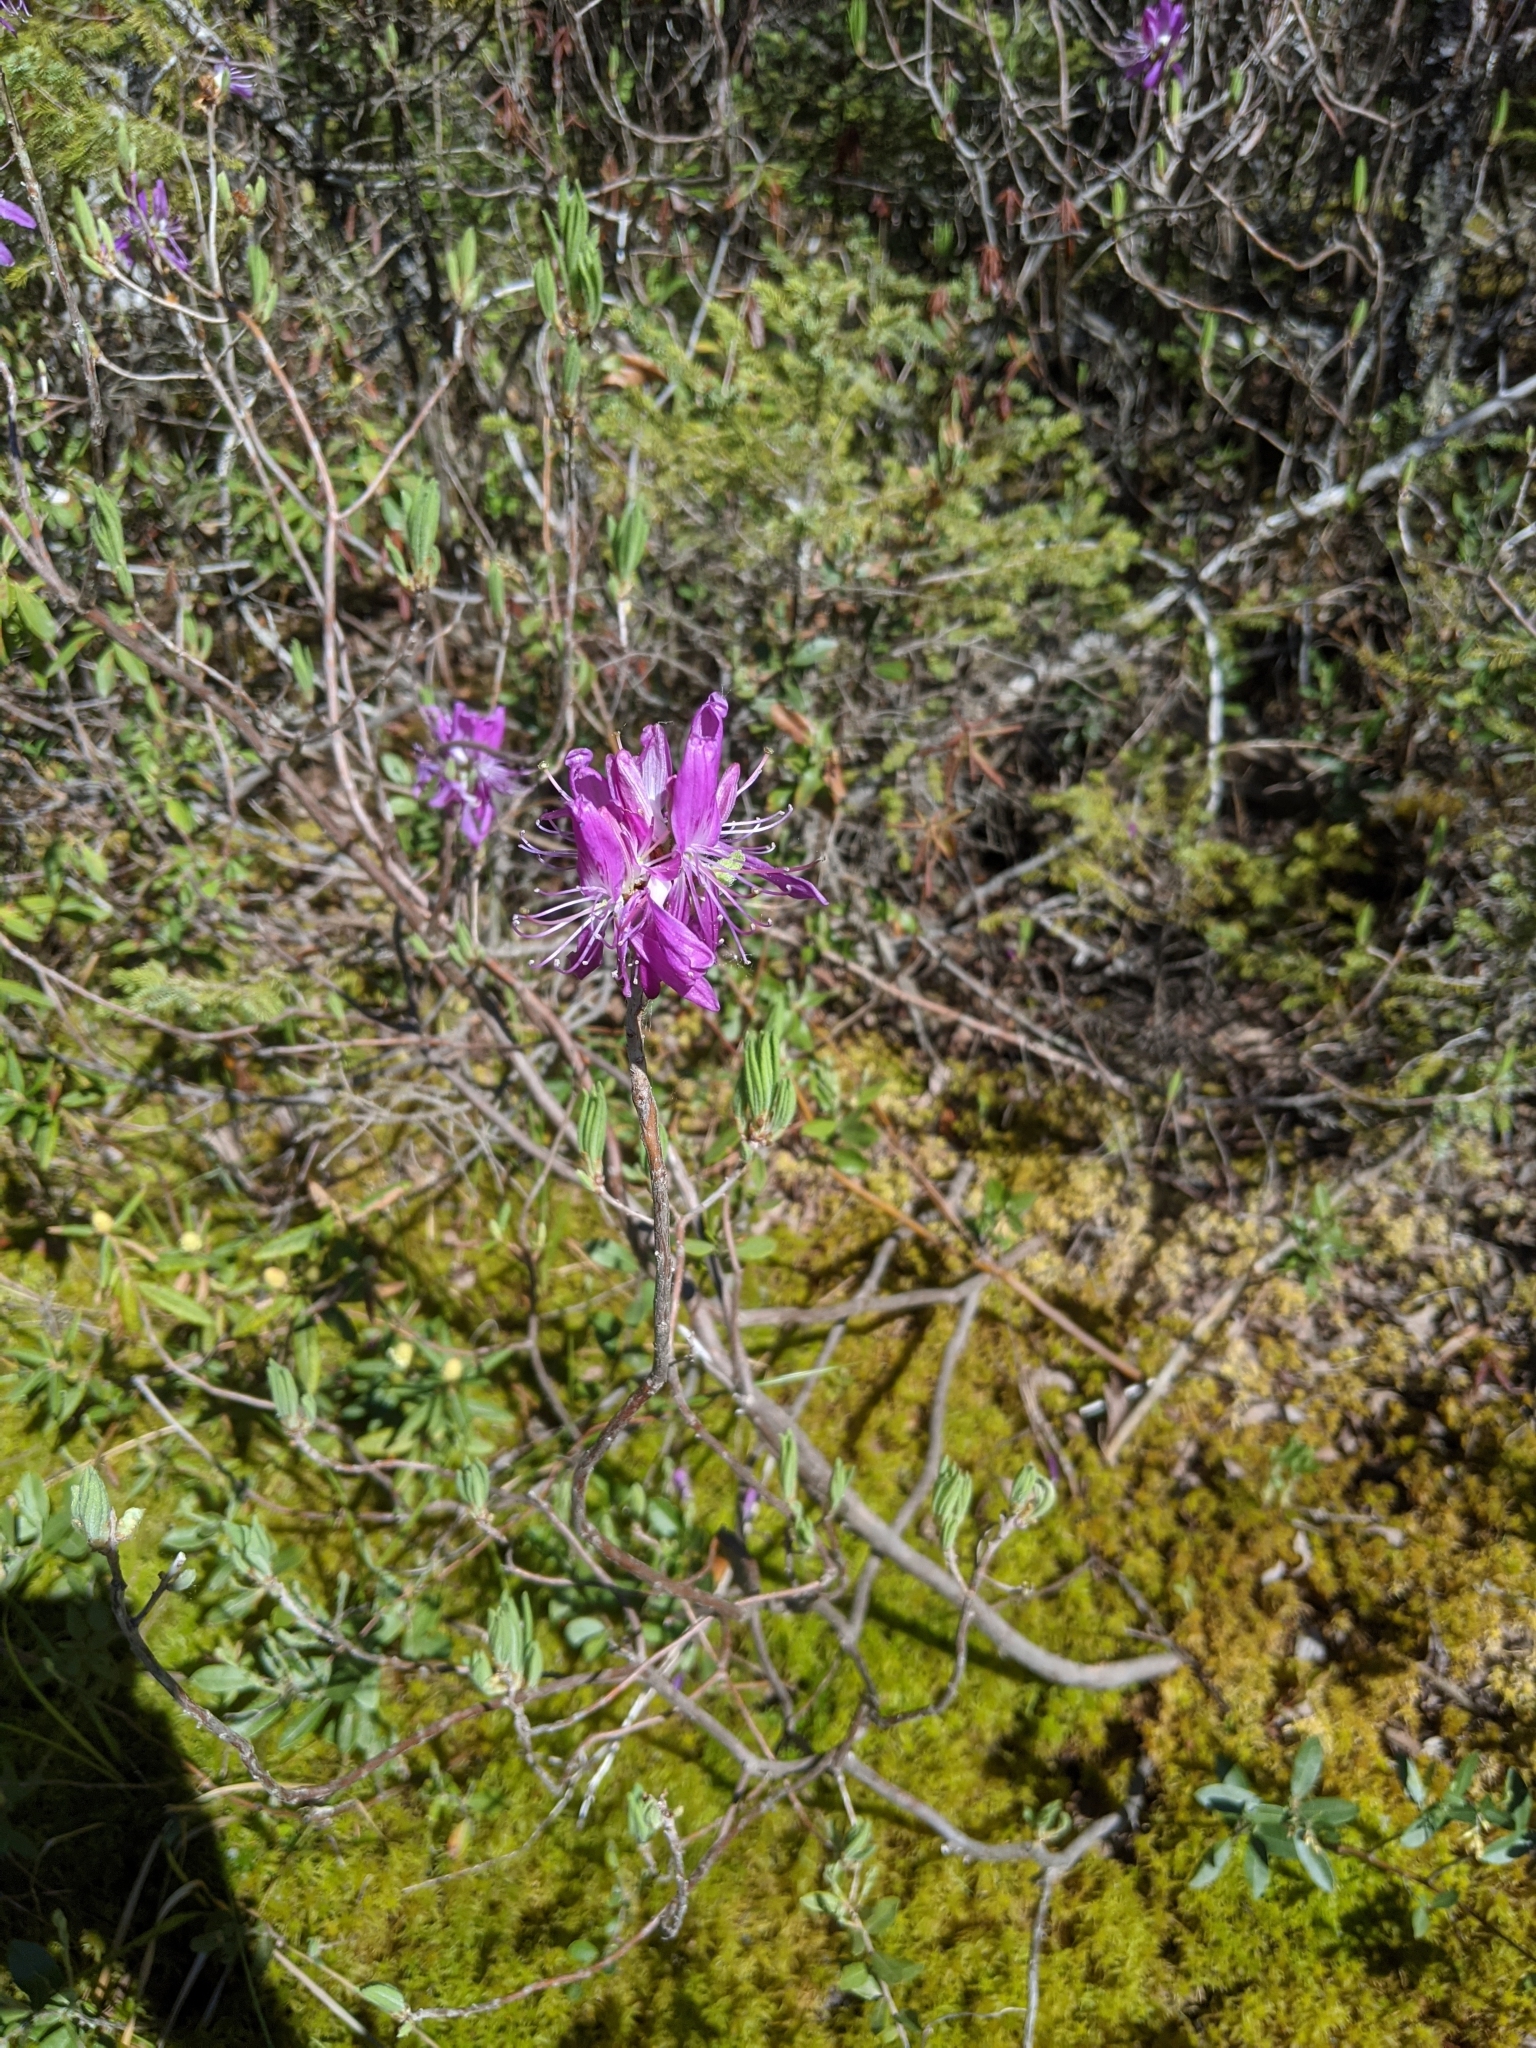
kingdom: Plantae
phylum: Tracheophyta
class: Magnoliopsida
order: Ericales
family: Ericaceae
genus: Rhododendron
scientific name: Rhododendron canadense
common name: Rhodora
